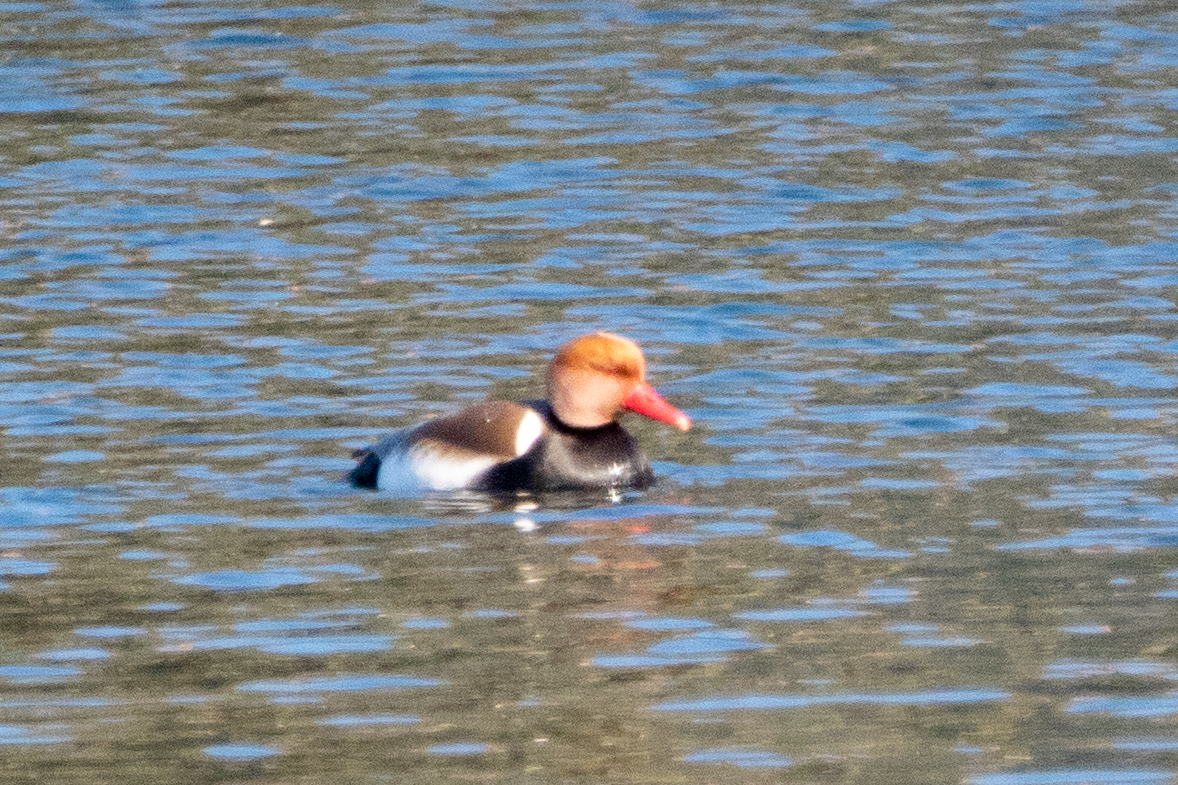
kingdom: Animalia
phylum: Chordata
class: Aves
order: Anseriformes
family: Anatidae
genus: Netta
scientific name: Netta rufina
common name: Red-crested pochard
